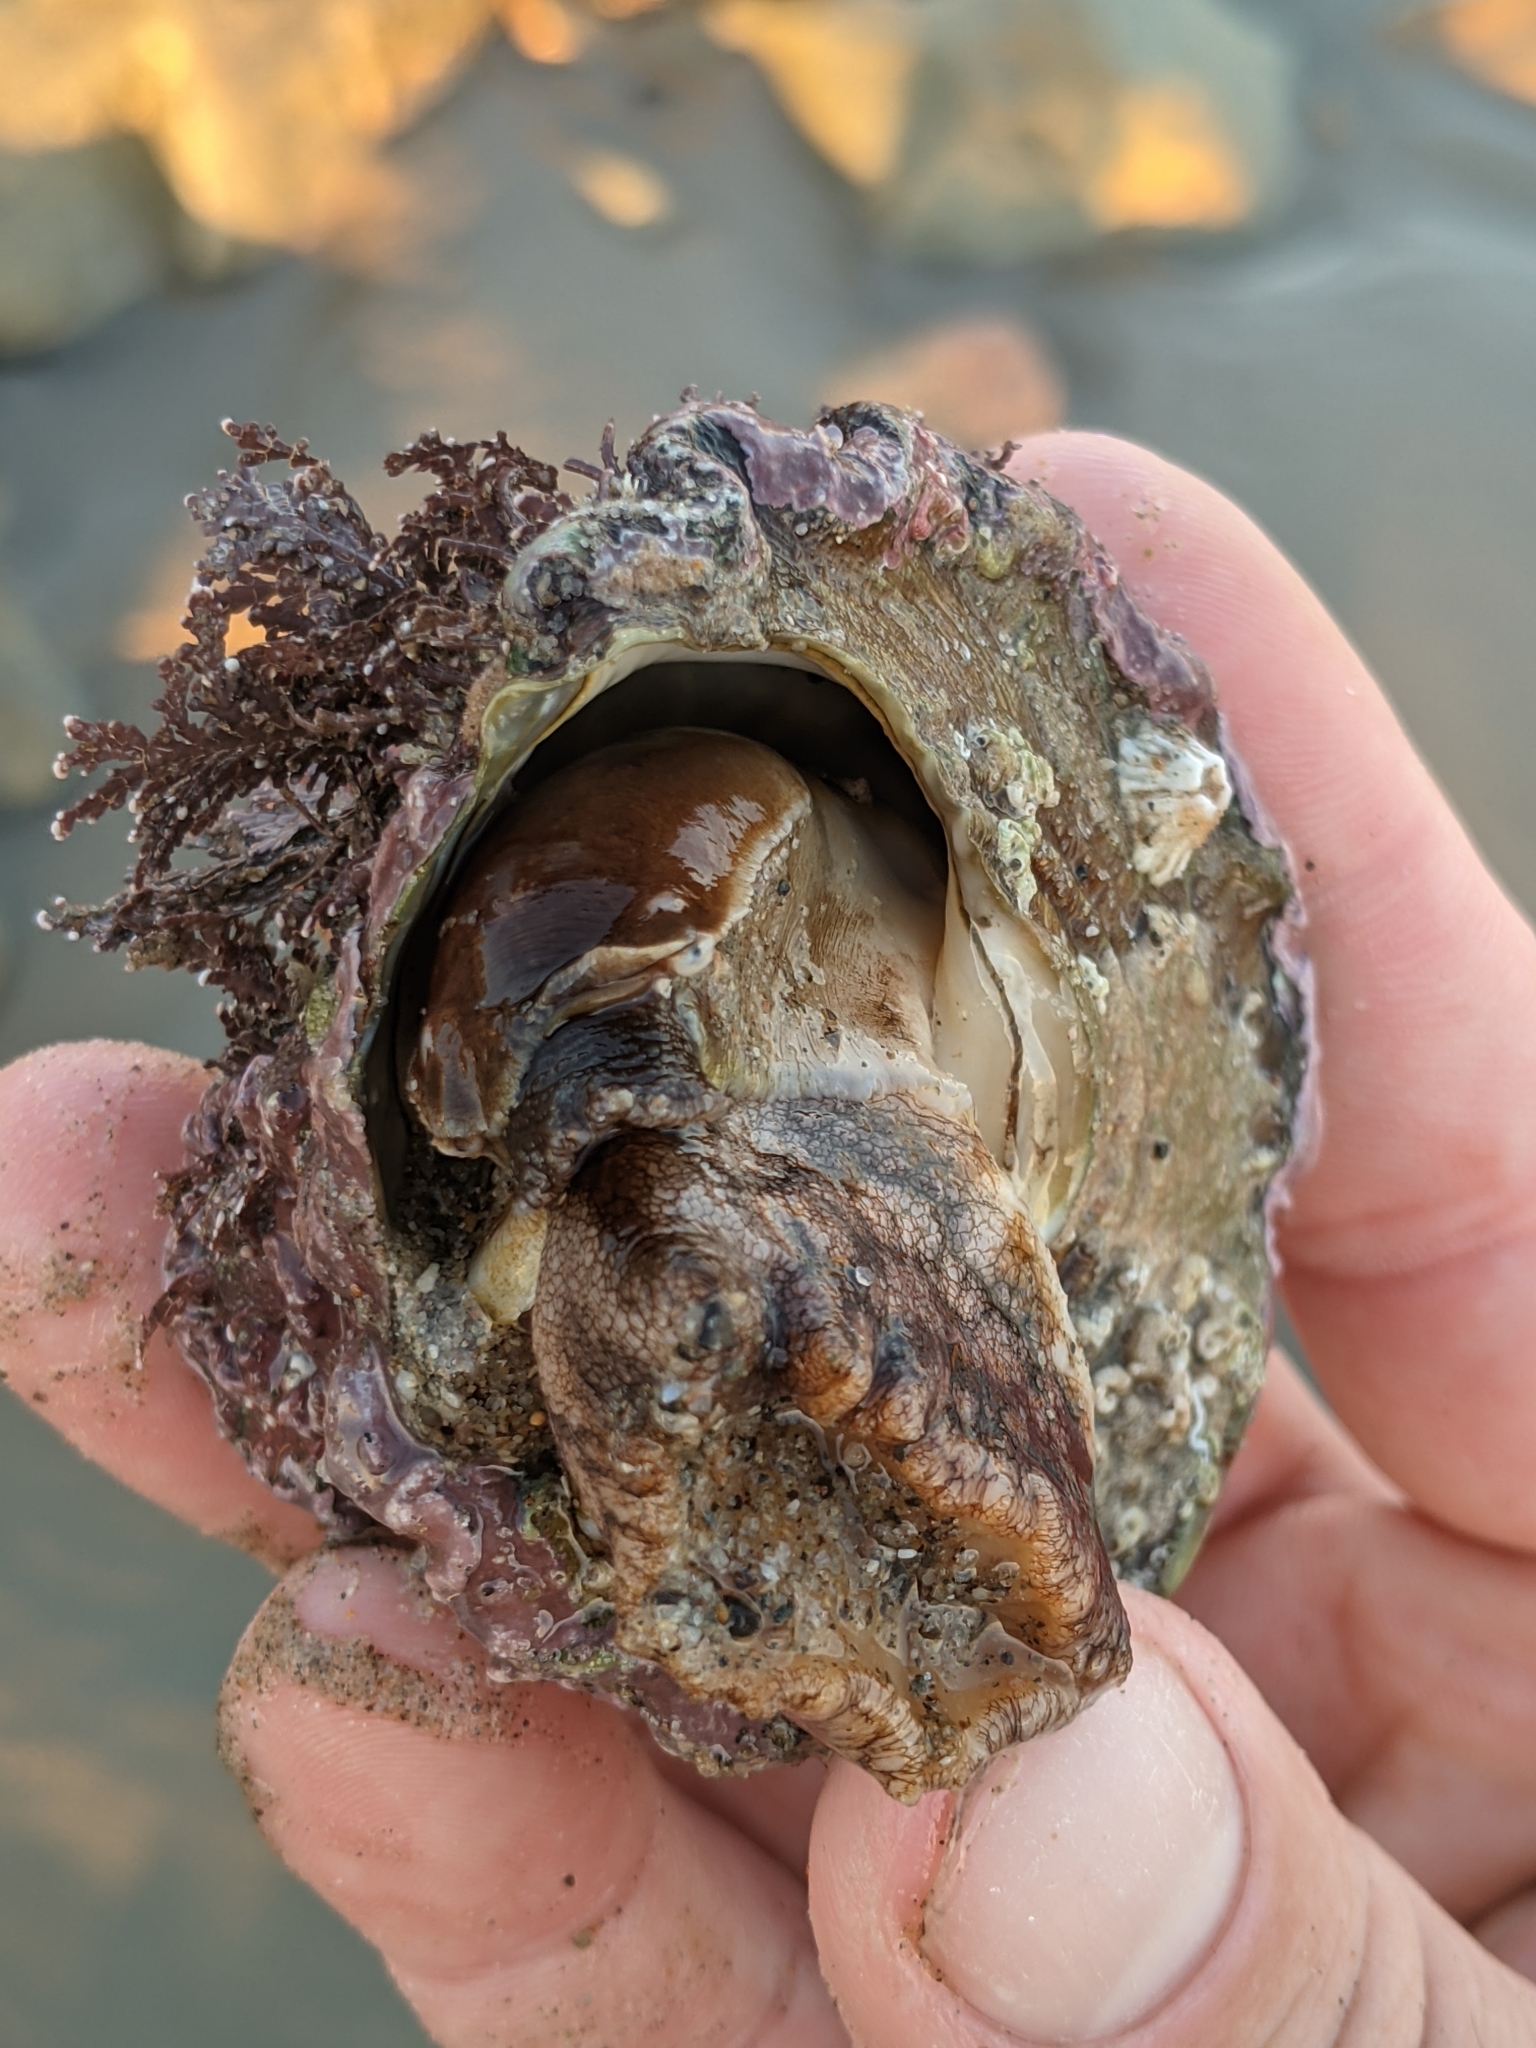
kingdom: Animalia
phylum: Mollusca
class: Gastropoda
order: Trochida
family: Turbinidae
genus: Megastraea
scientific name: Megastraea undosa
